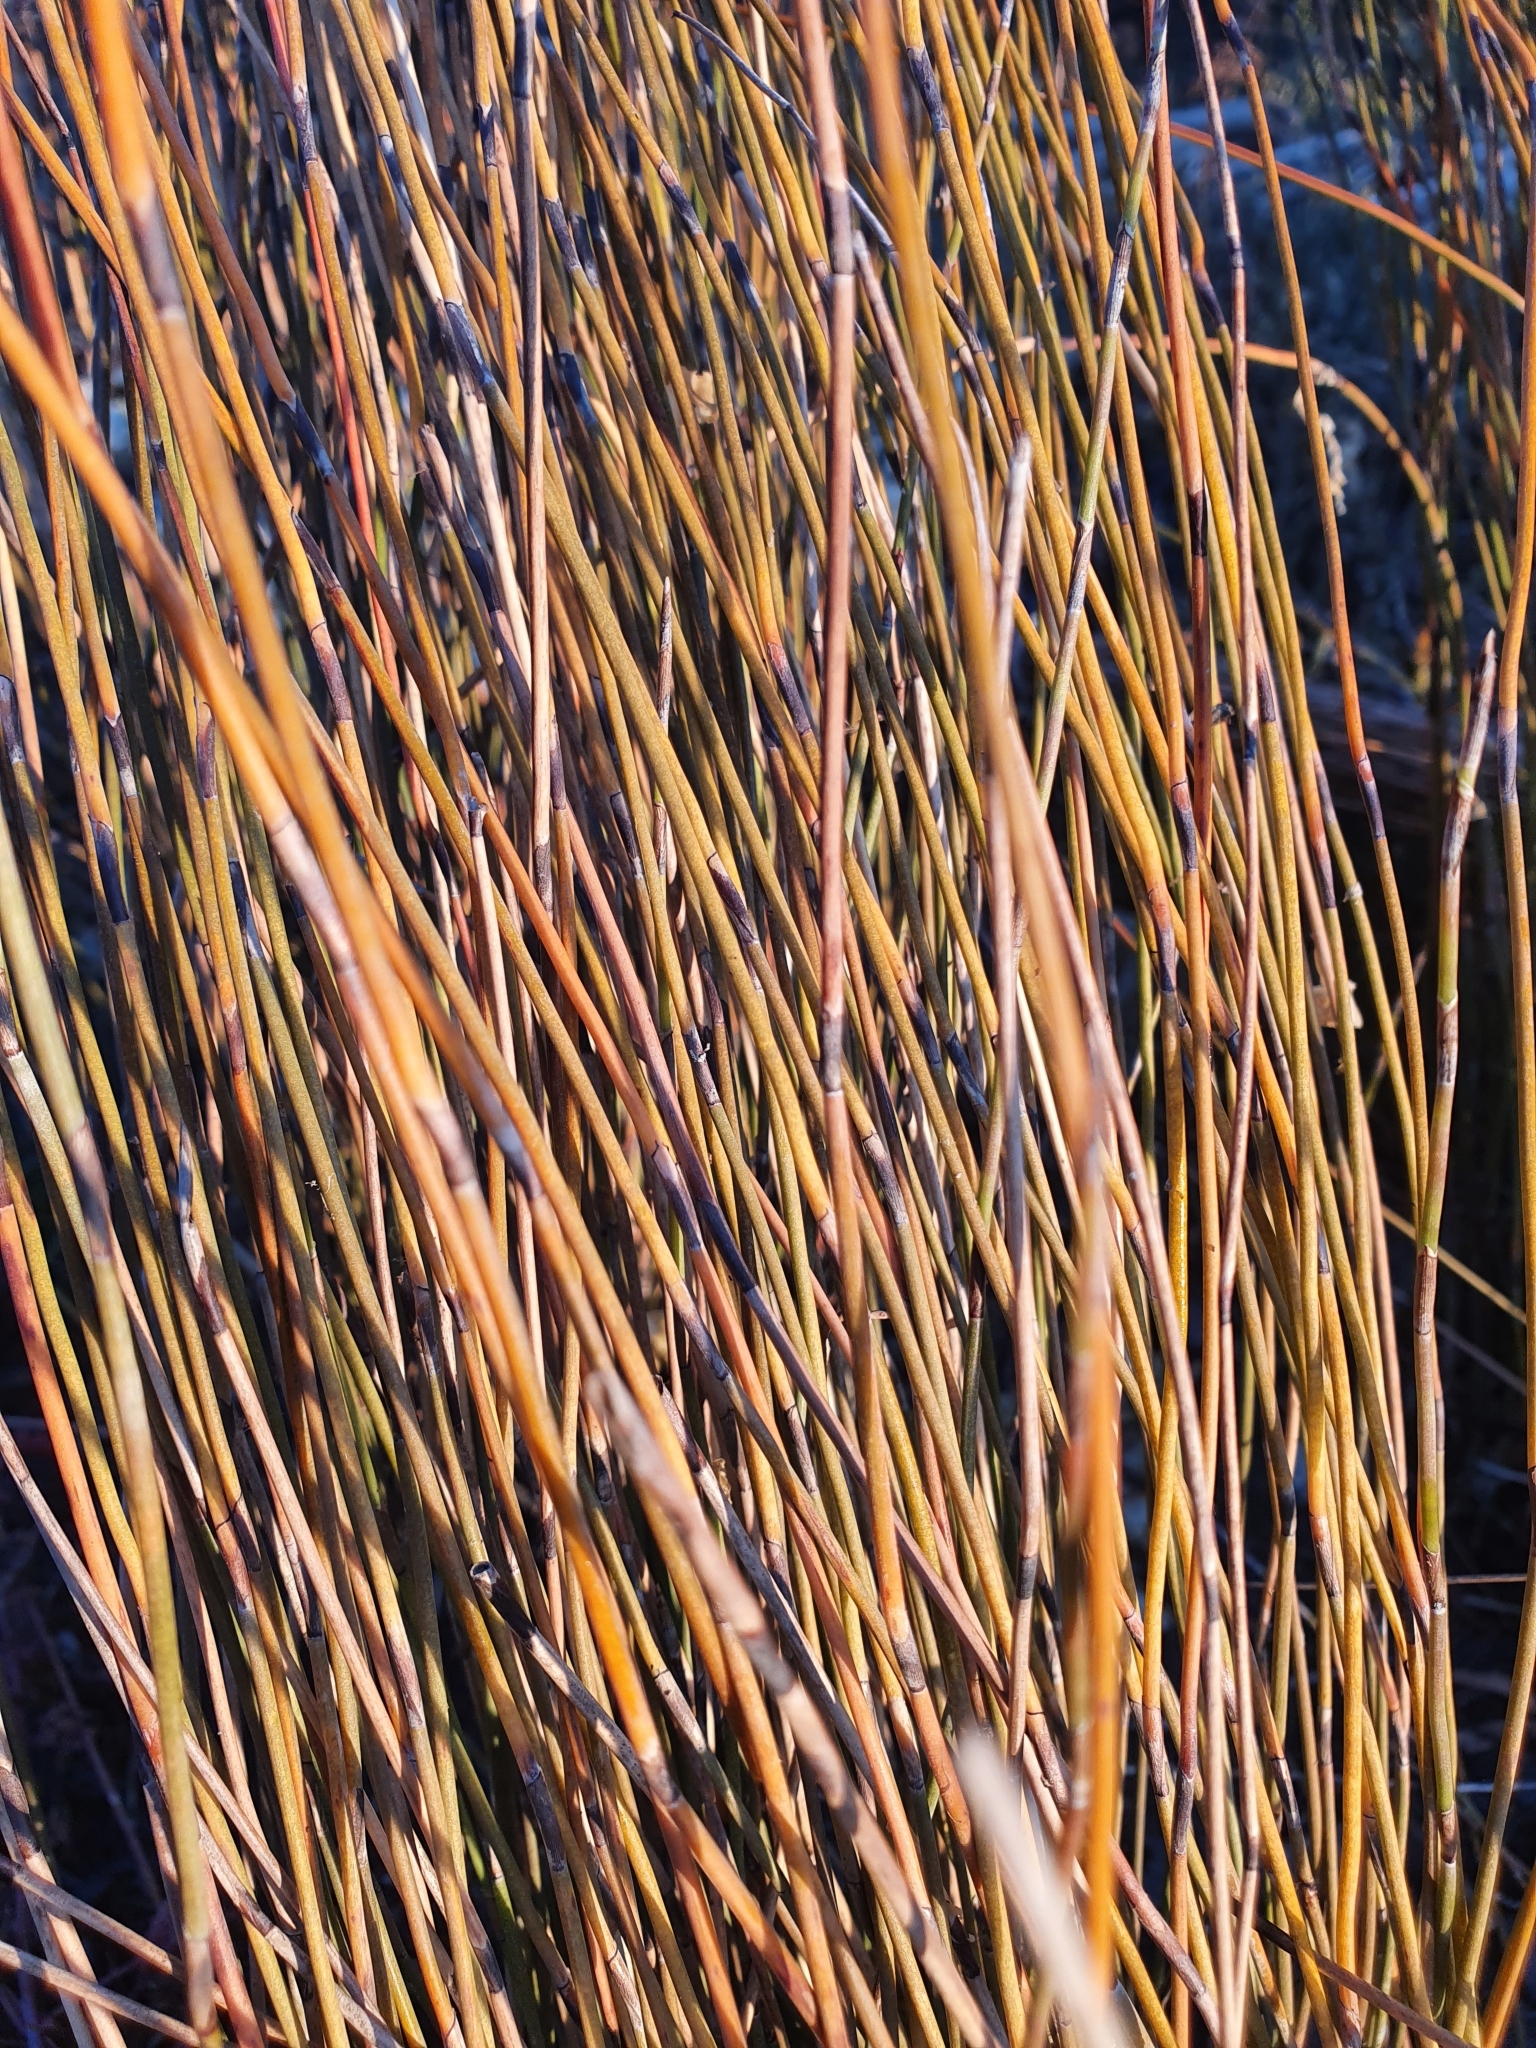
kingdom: Plantae
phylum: Tracheophyta
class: Liliopsida
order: Poales
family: Restionaceae
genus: Apodasmia
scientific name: Apodasmia similis
